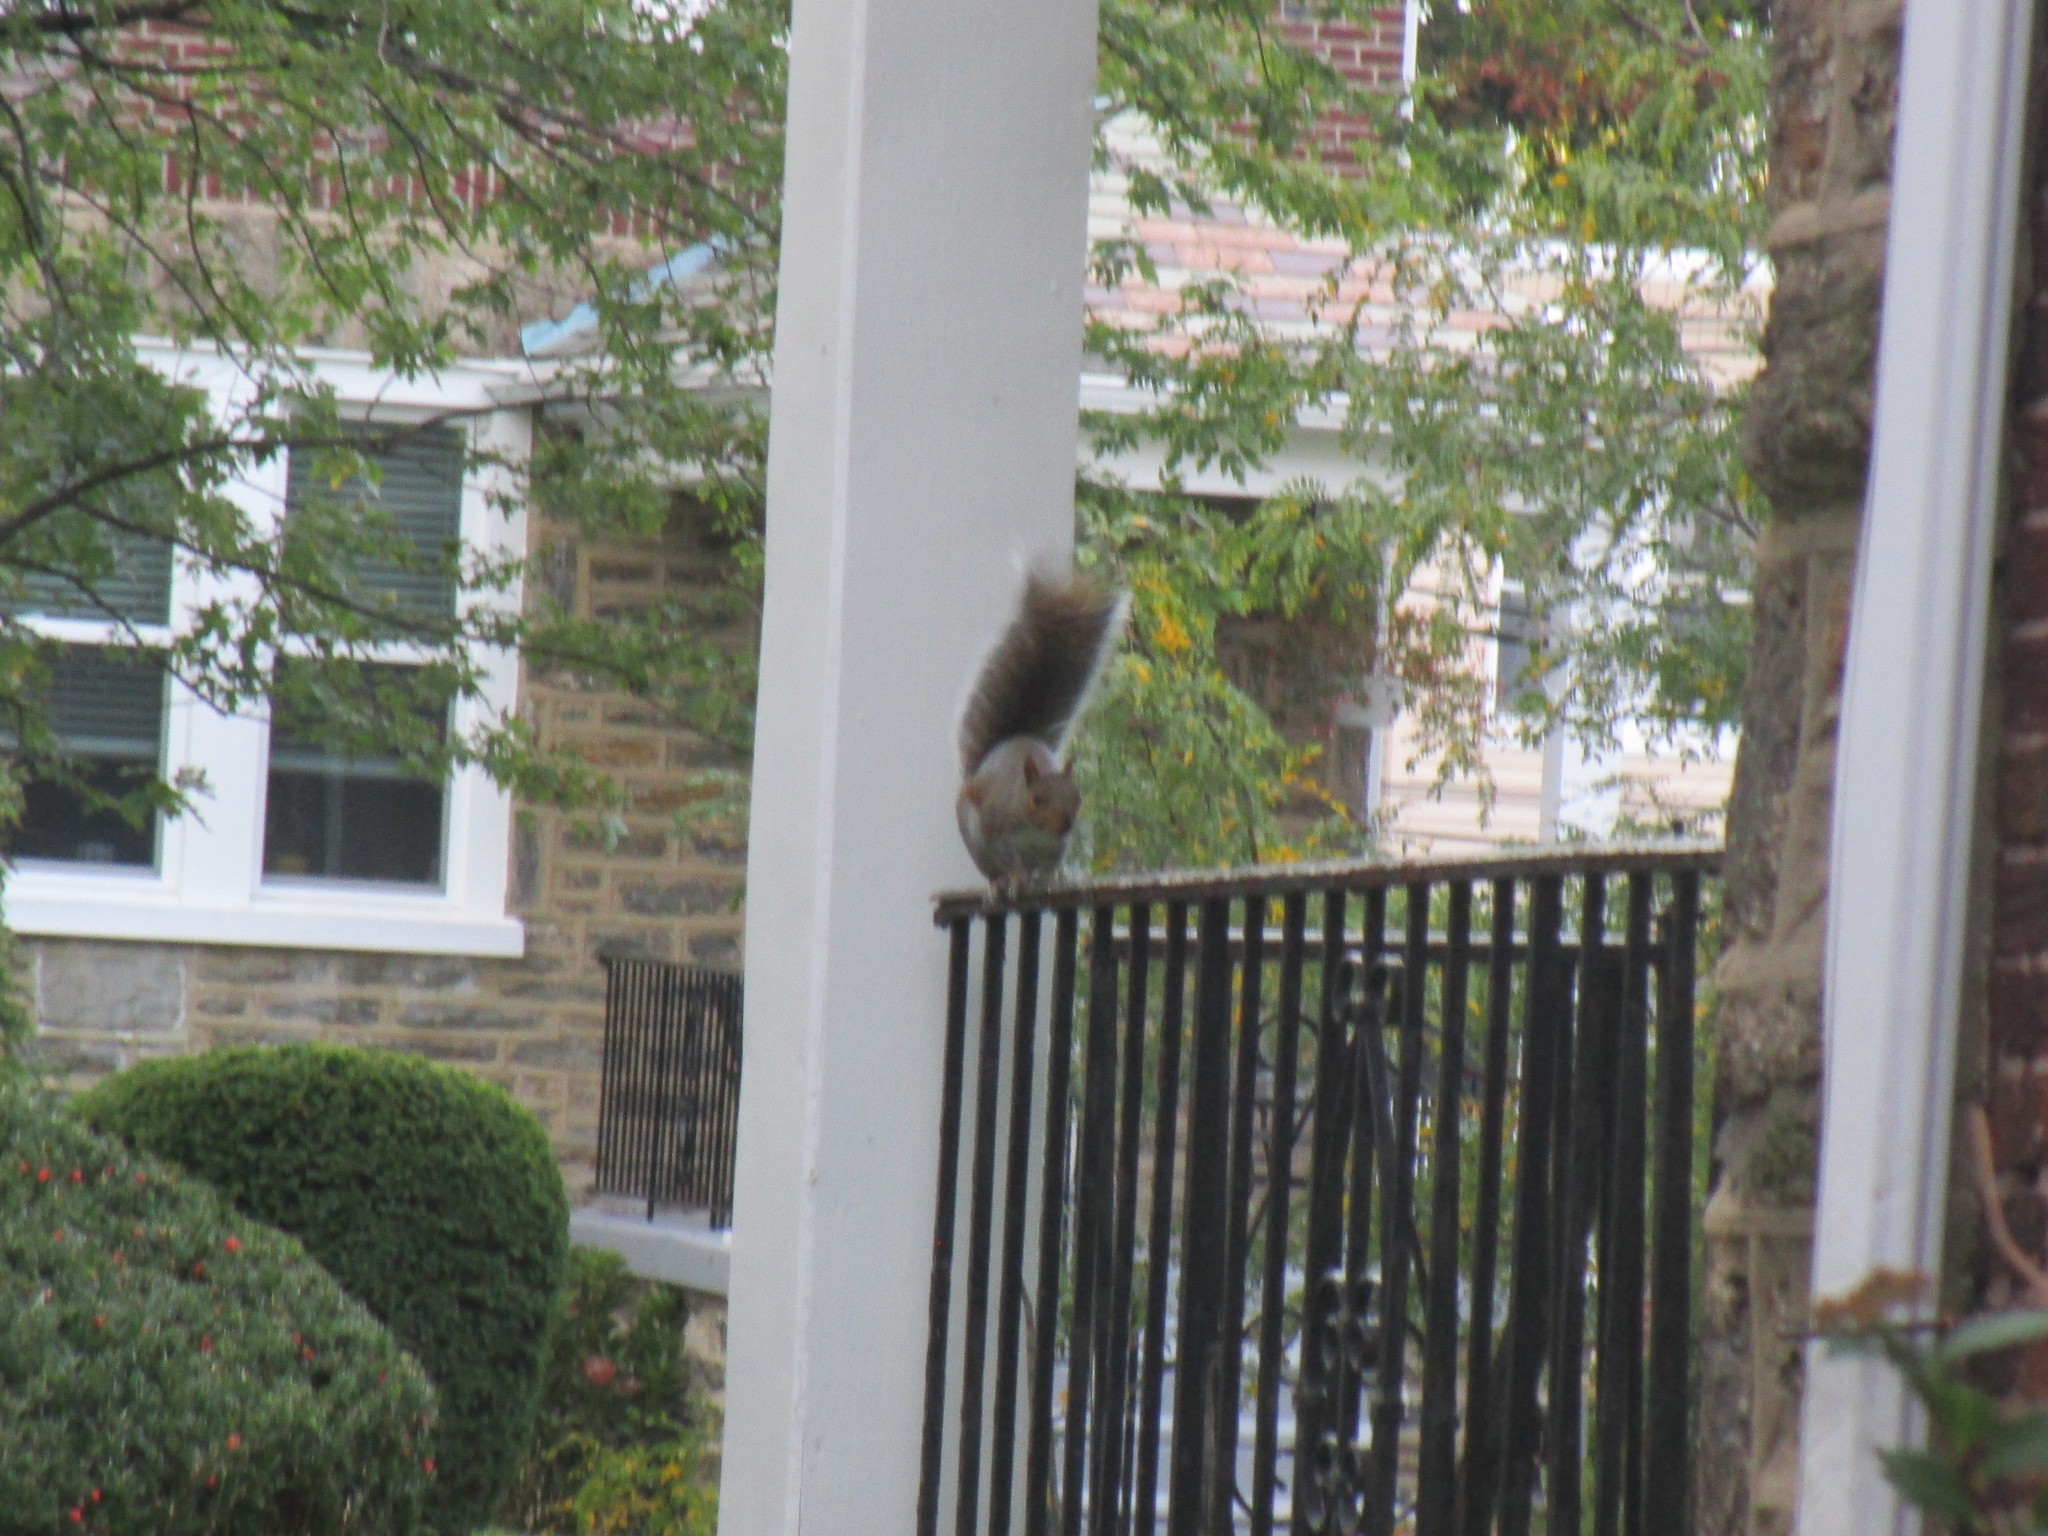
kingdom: Animalia
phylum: Chordata
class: Mammalia
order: Rodentia
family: Sciuridae
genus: Sciurus
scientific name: Sciurus carolinensis
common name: Eastern gray squirrel
